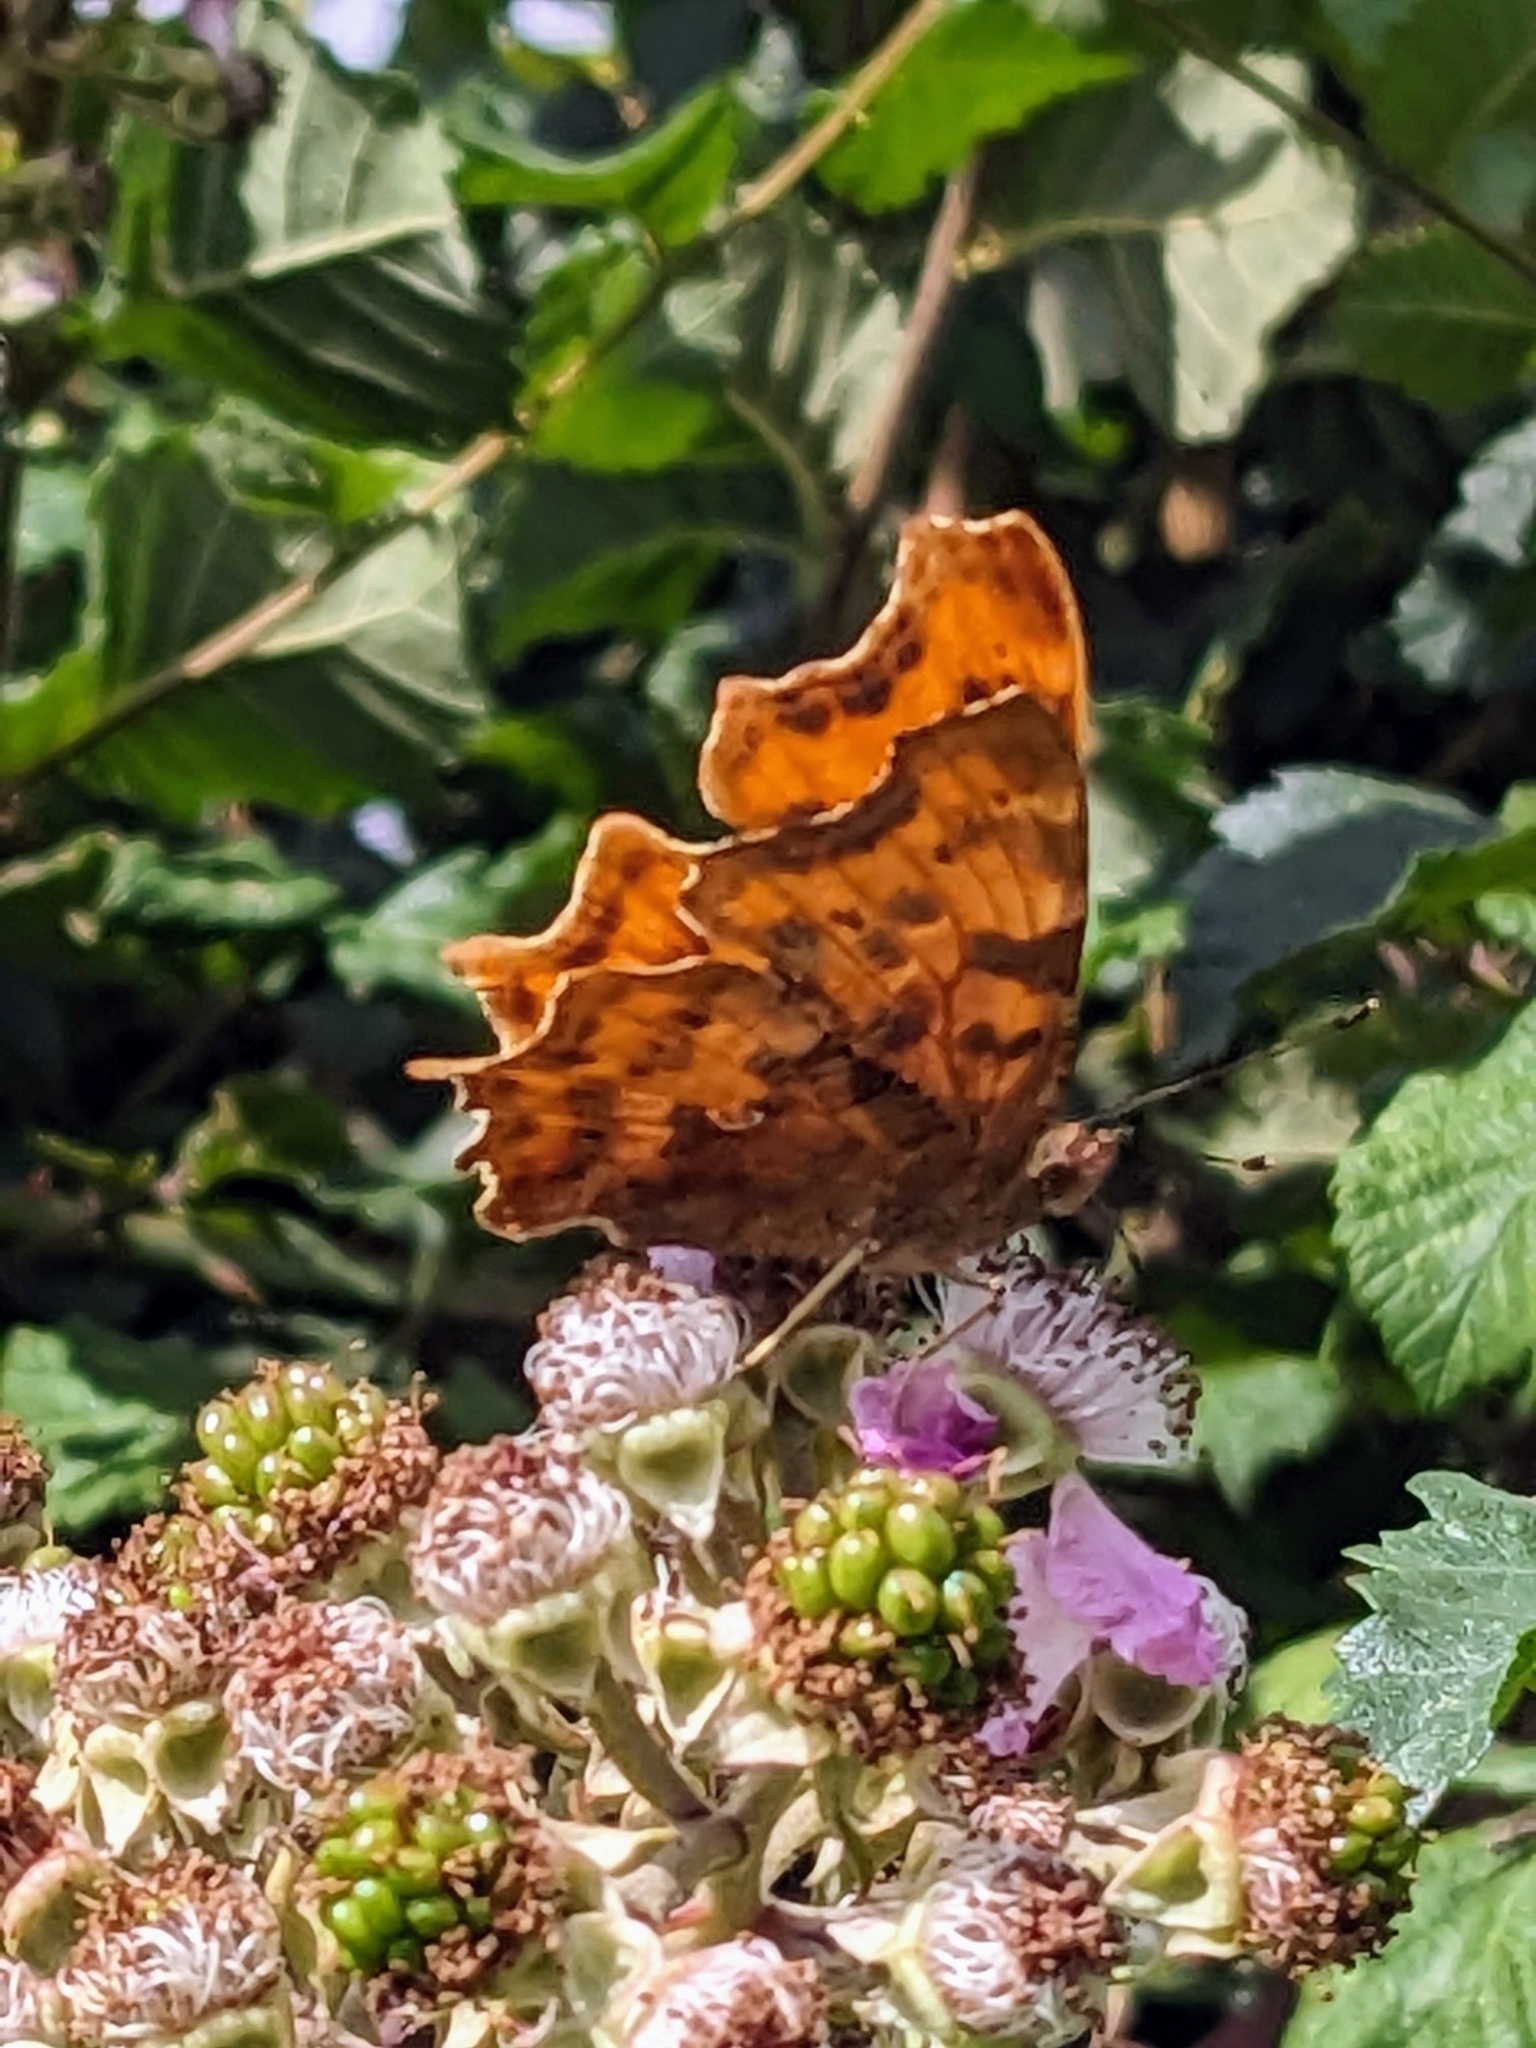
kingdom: Animalia
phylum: Arthropoda
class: Insecta
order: Lepidoptera
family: Nymphalidae
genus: Polygonia
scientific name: Polygonia c-album
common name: Comma
